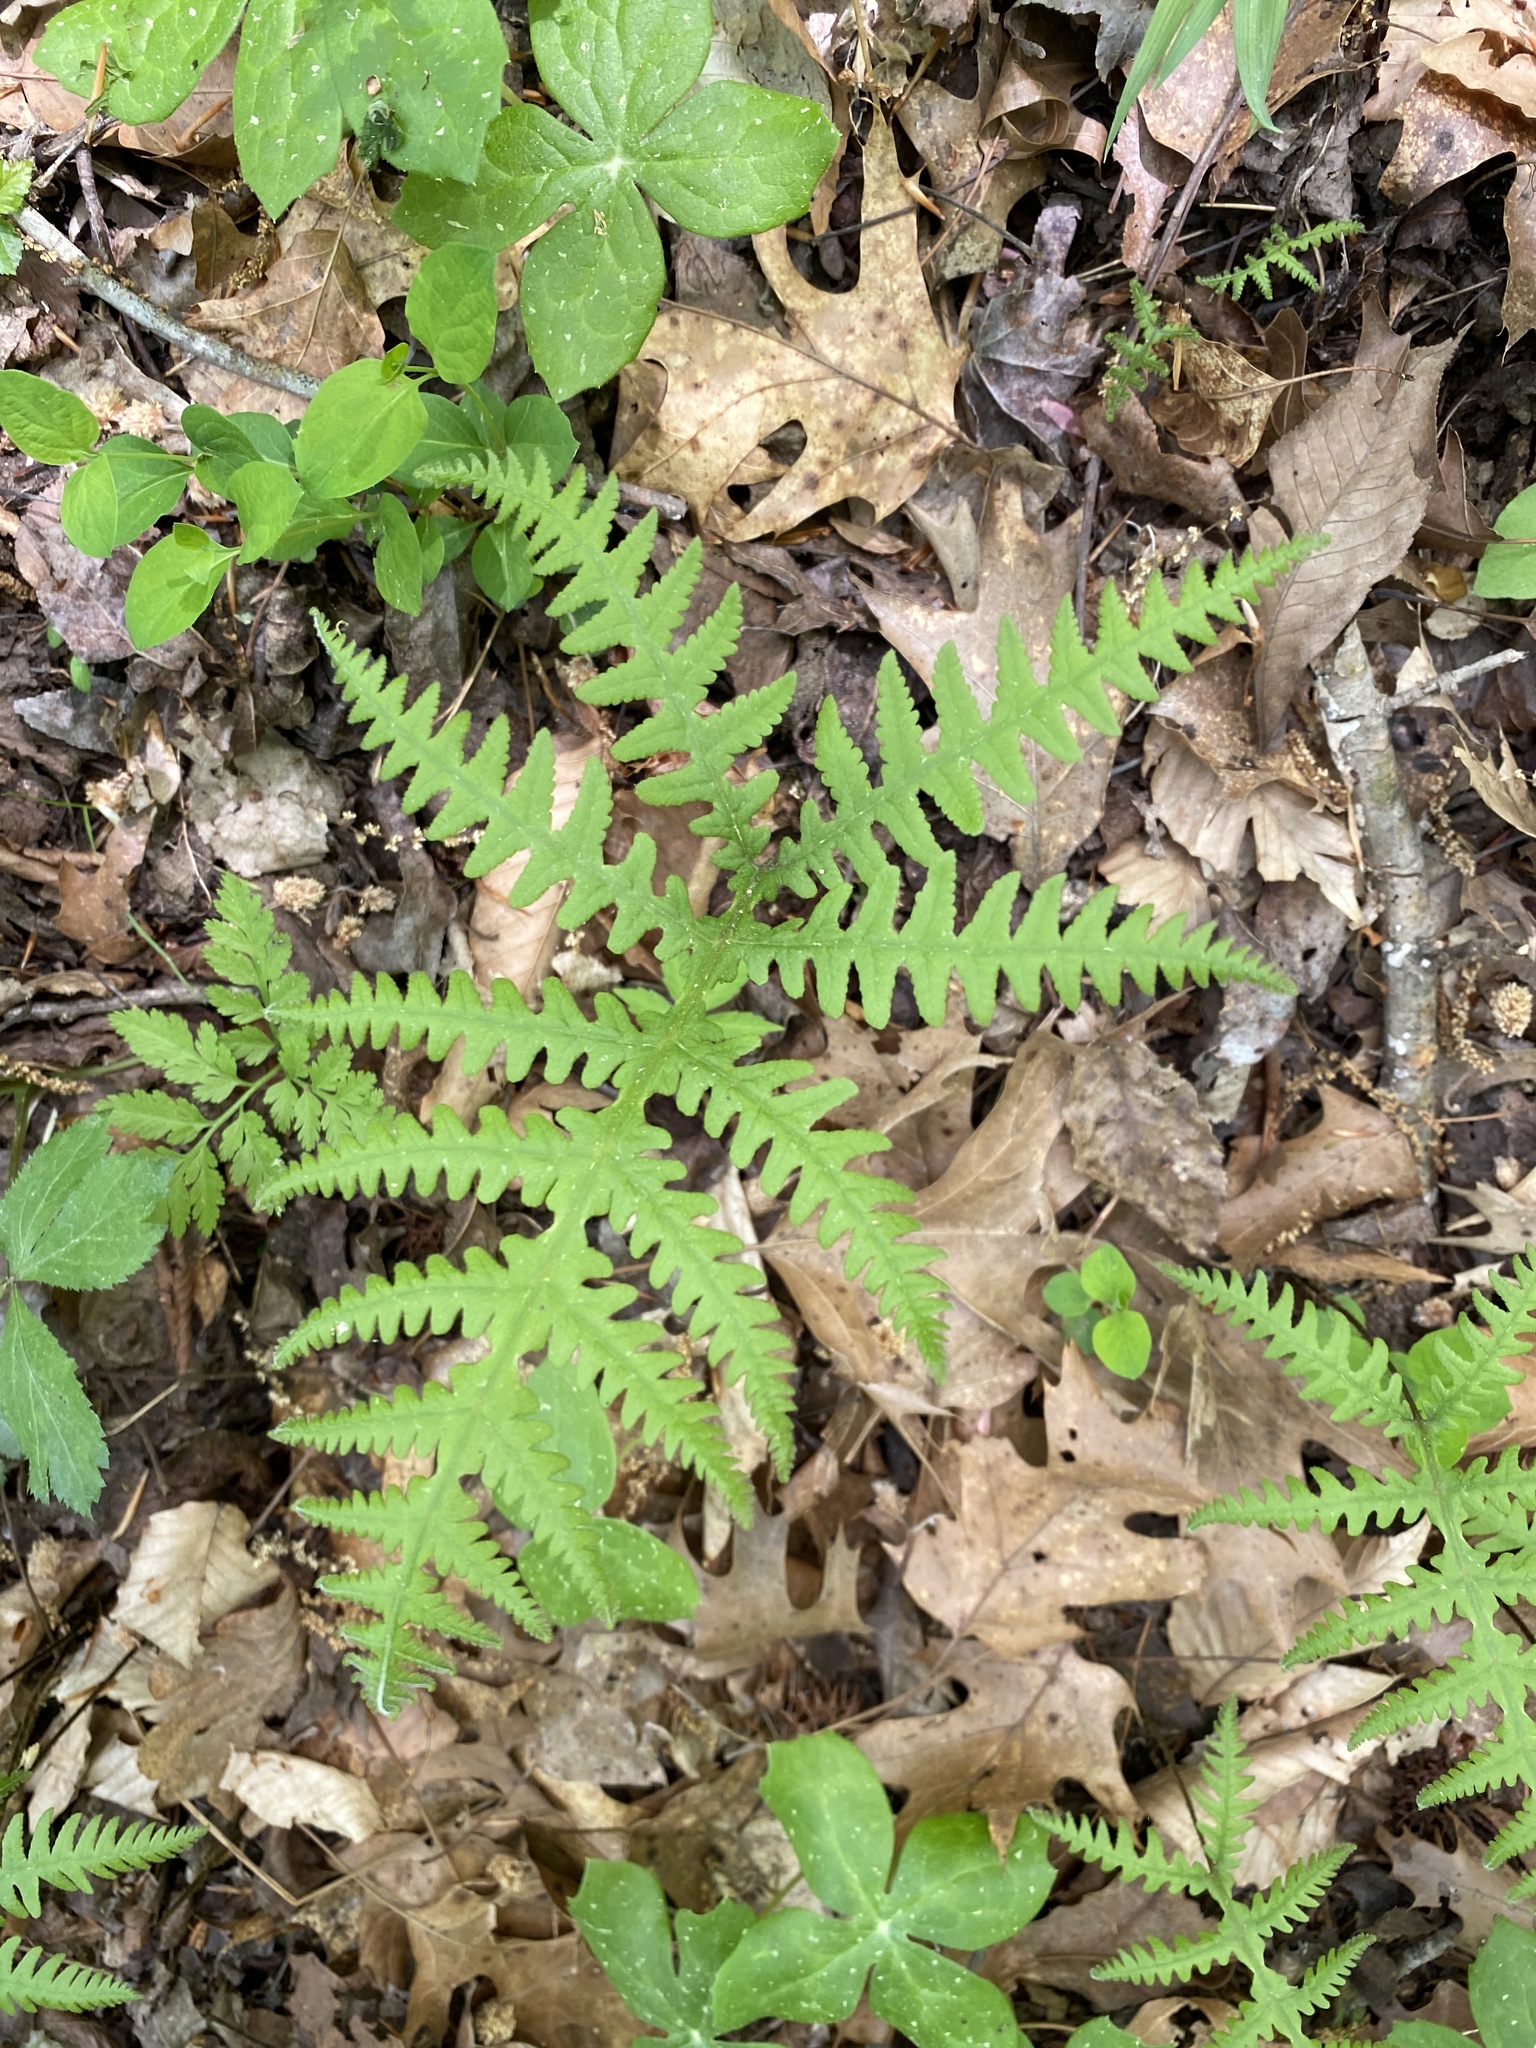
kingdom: Plantae
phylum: Tracheophyta
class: Polypodiopsida
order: Polypodiales
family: Thelypteridaceae
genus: Phegopteris
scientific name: Phegopteris hexagonoptera
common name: Broad beech fern
